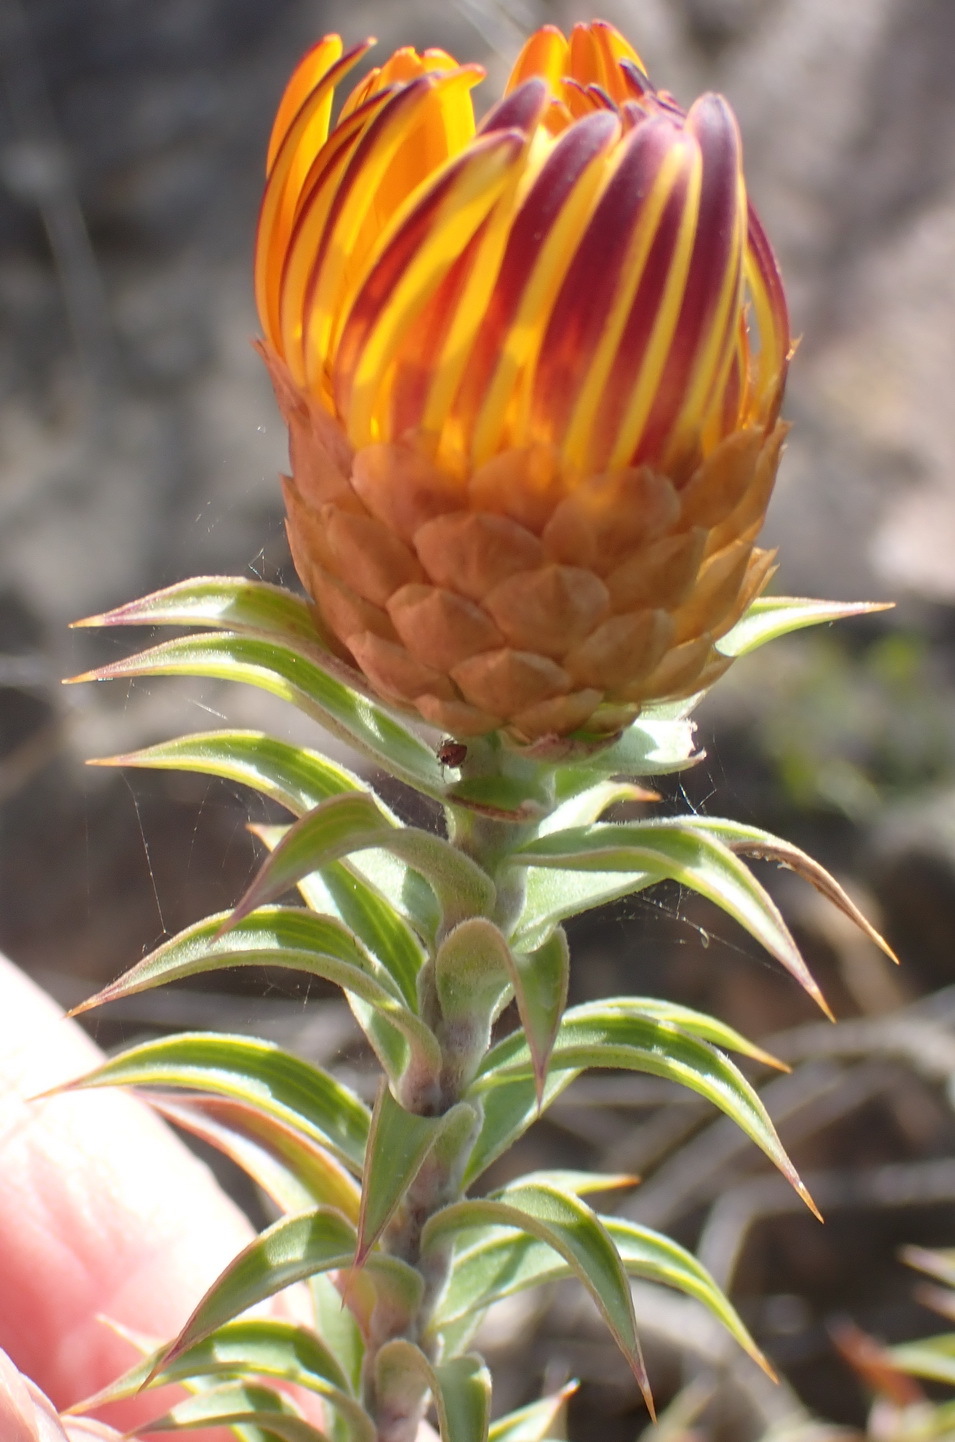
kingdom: Plantae
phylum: Tracheophyta
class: Magnoliopsida
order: Asterales
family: Asteraceae
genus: Oedera
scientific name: Oedera speciosa
